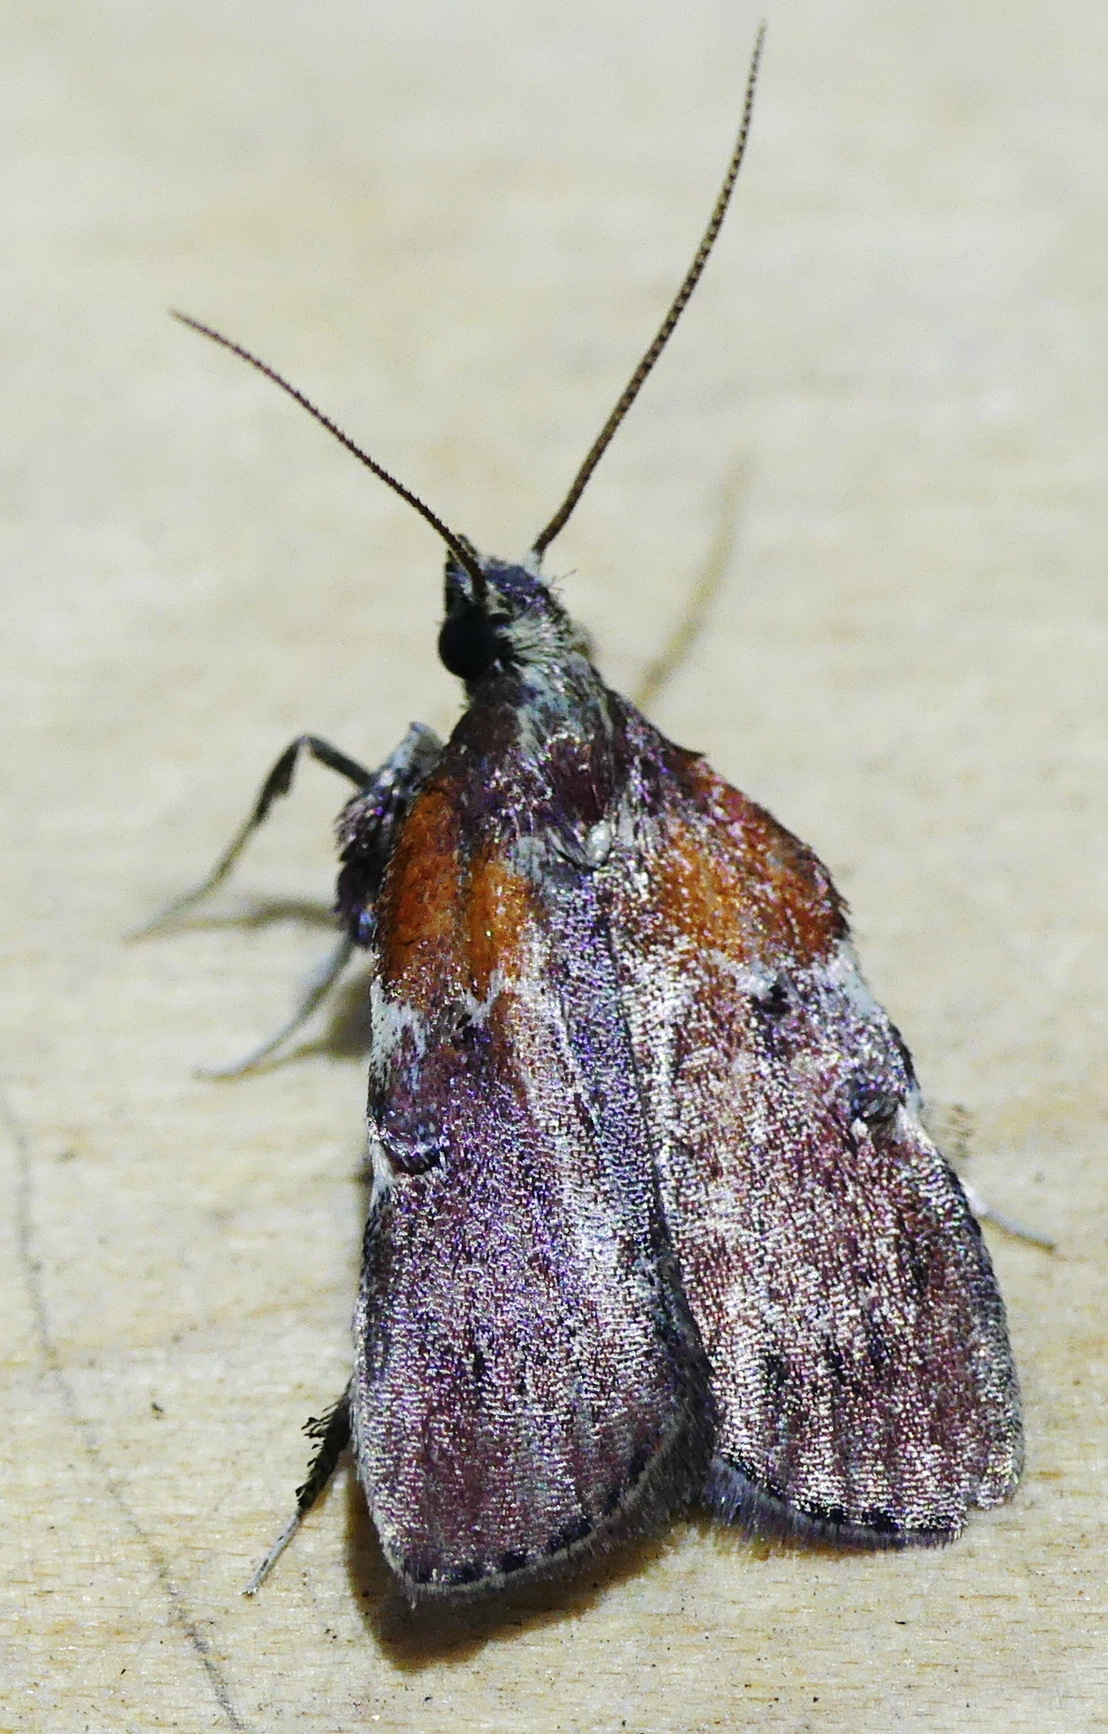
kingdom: Animalia
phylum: Arthropoda
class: Insecta
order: Lepidoptera
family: Pyralidae
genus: Galasa
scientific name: Galasa nigrinodis
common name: Boxwood leaftier moth
